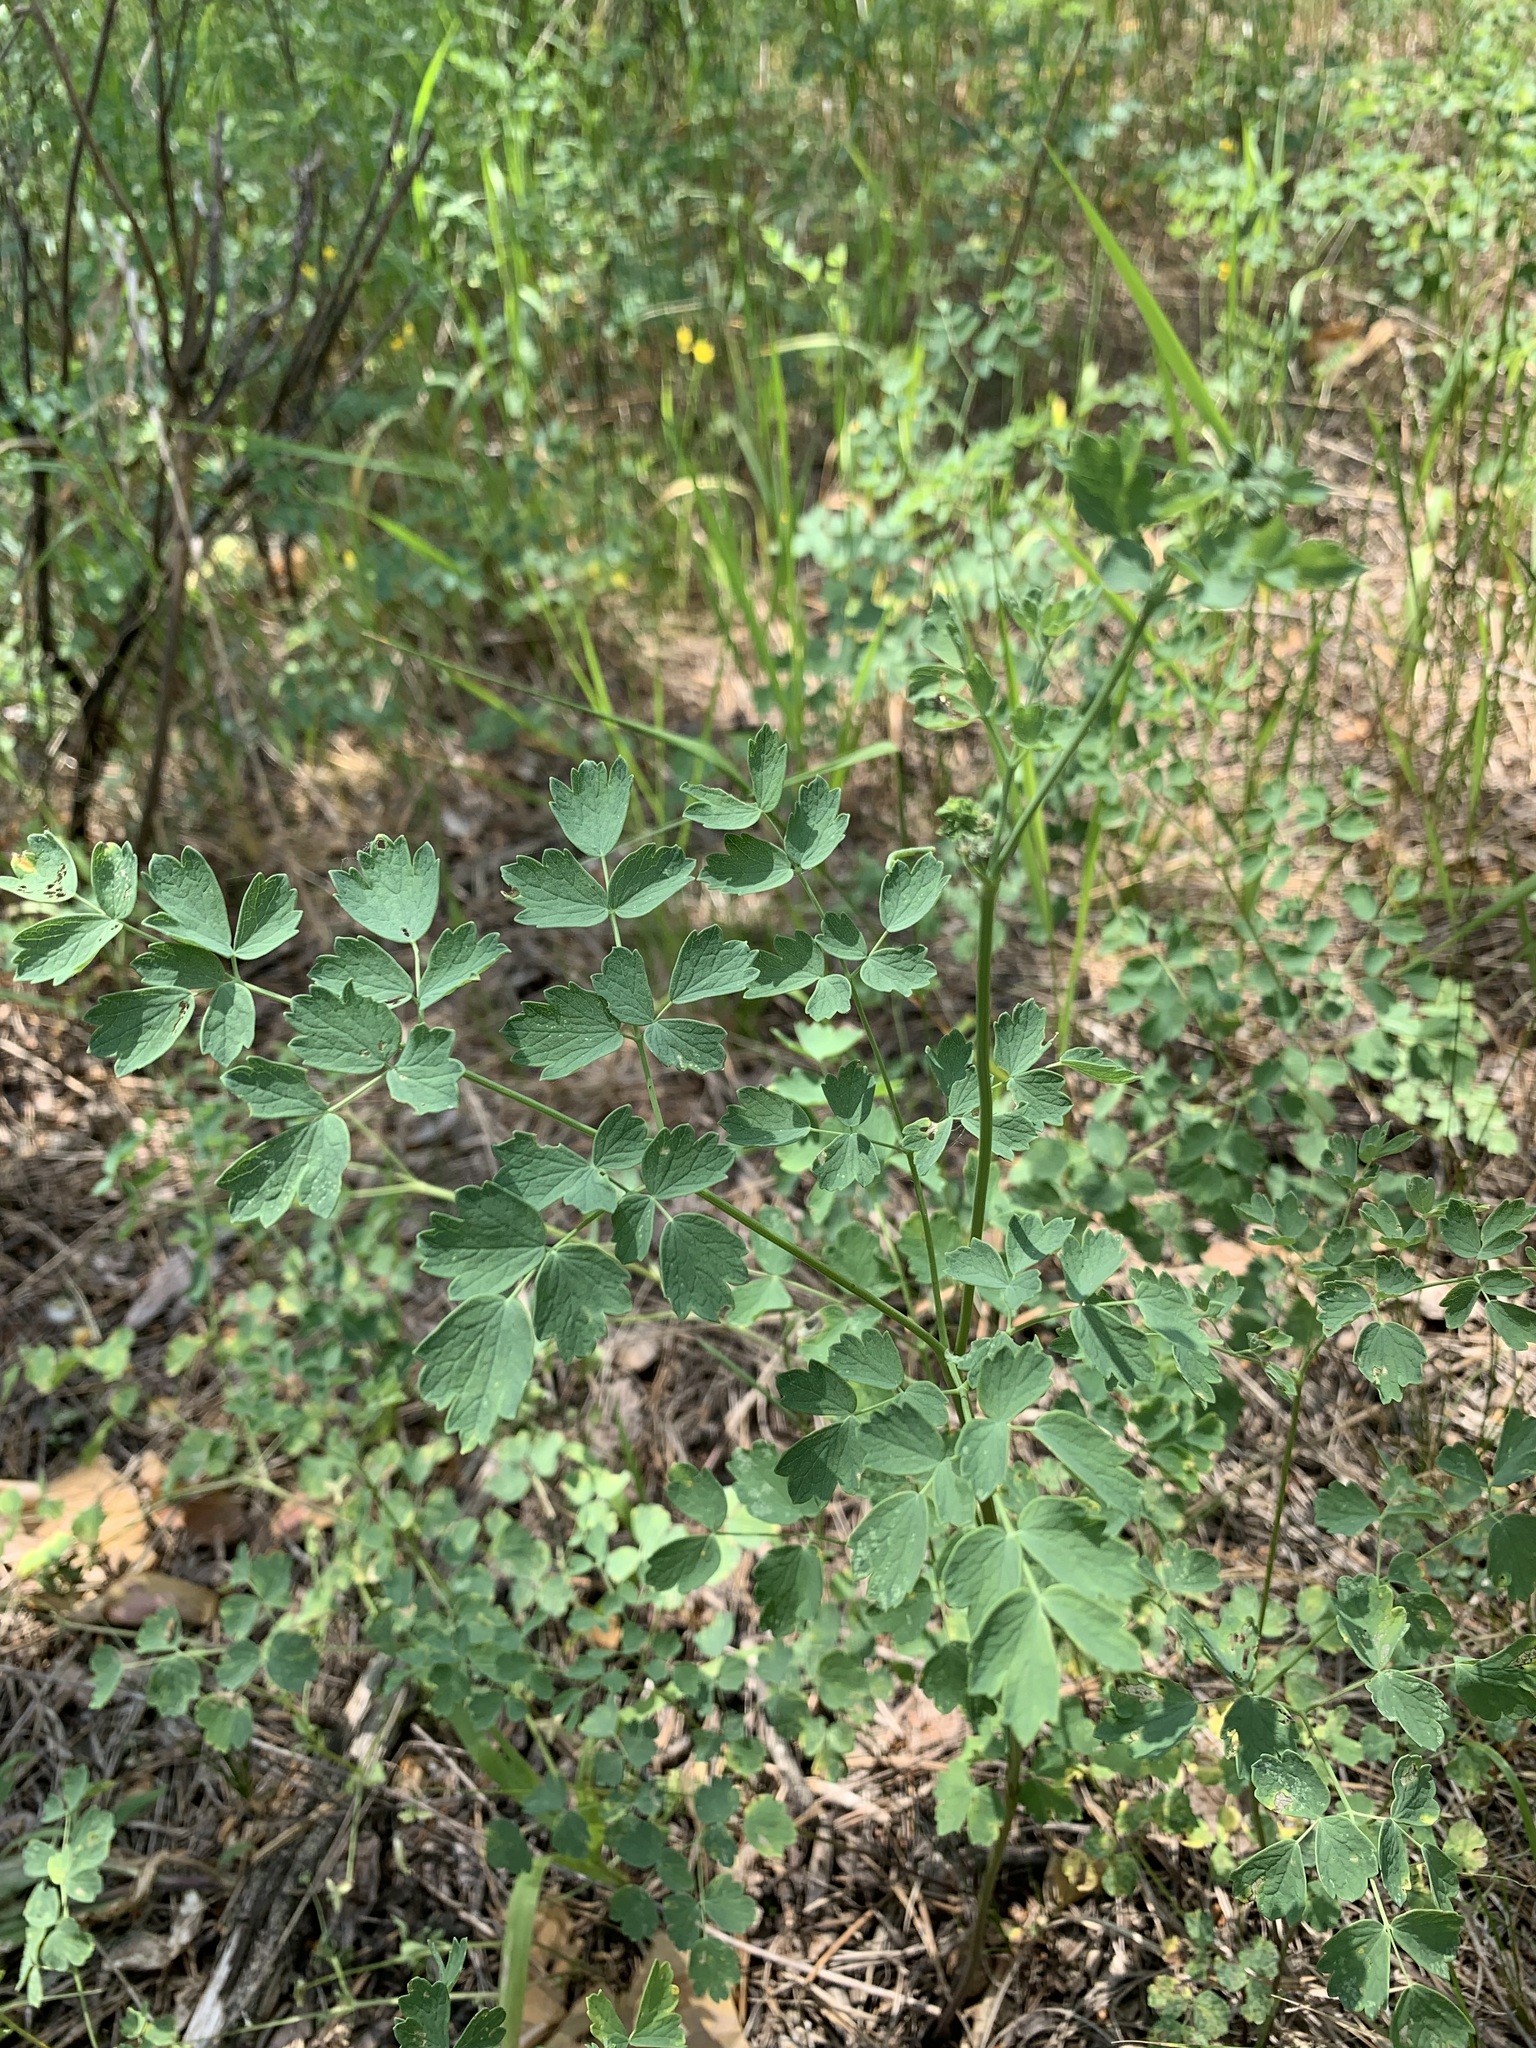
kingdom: Plantae
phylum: Tracheophyta
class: Magnoliopsida
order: Ranunculales
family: Ranunculaceae
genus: Thalictrum
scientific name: Thalictrum minus
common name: Lesser meadow-rue
